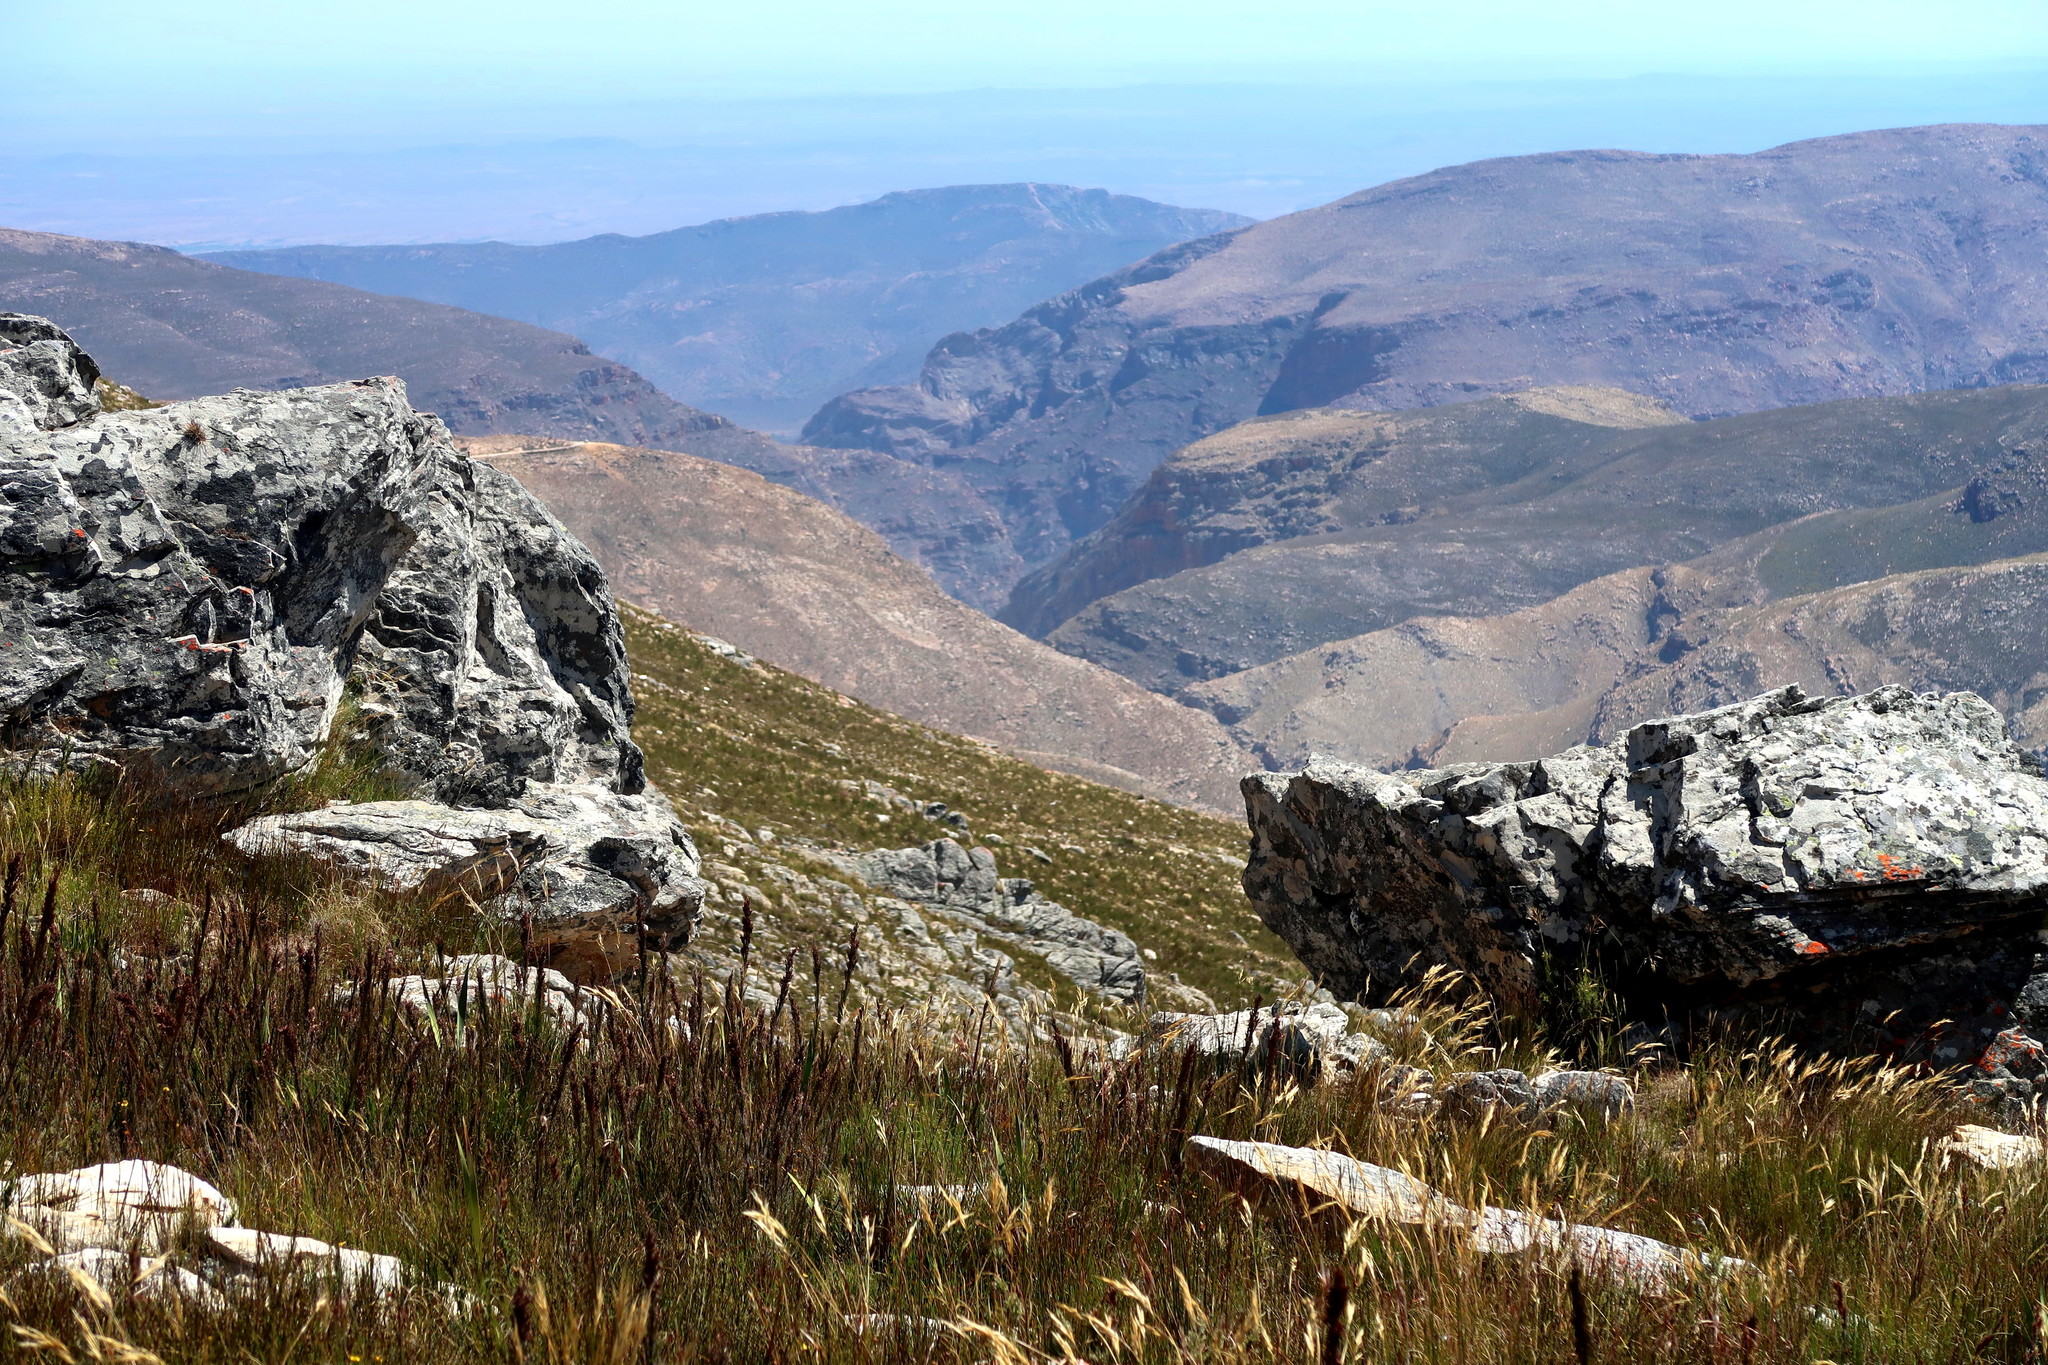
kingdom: Plantae
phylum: Tracheophyta
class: Liliopsida
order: Poales
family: Poaceae
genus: Tenaxia
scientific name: Tenaxia stricta
